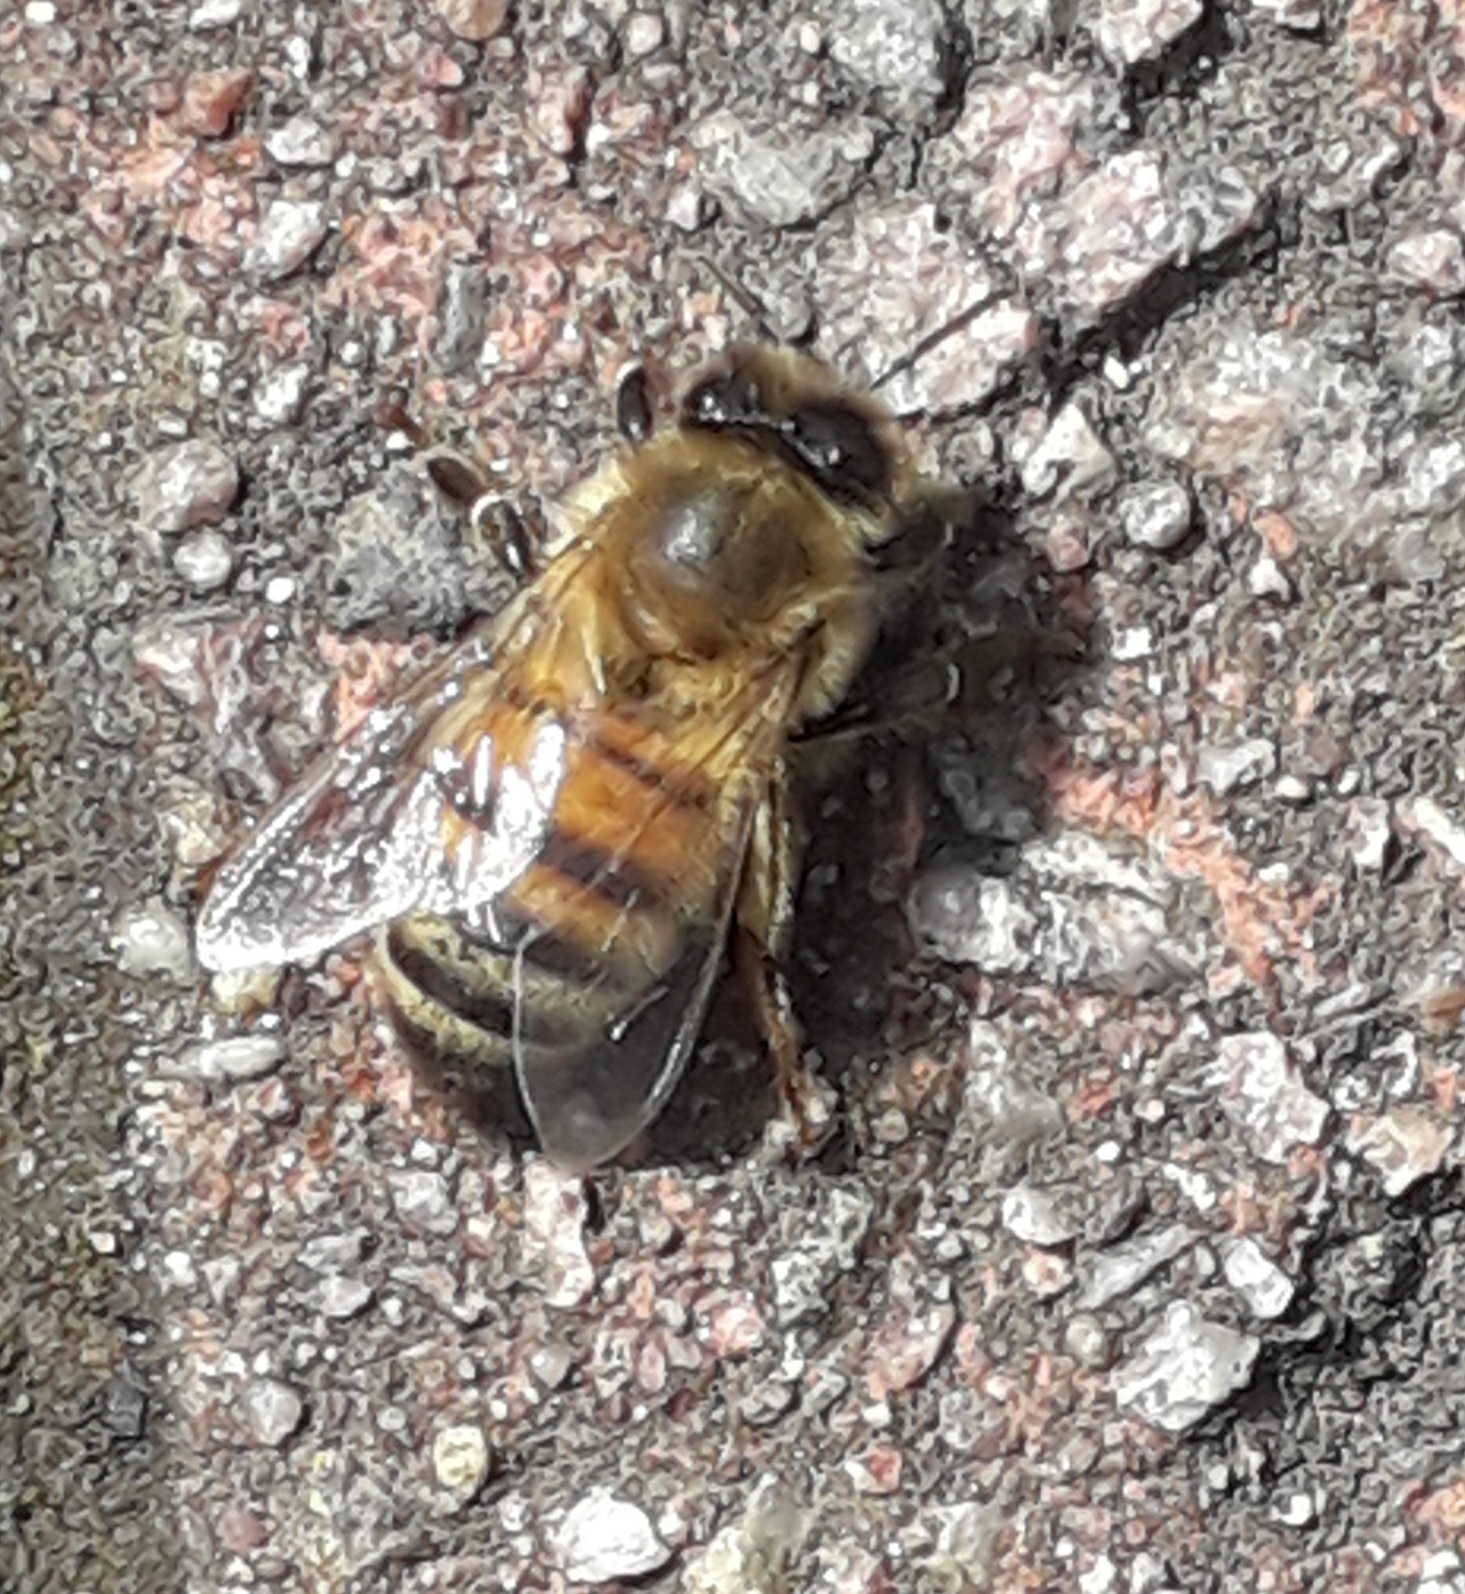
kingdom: Animalia
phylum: Arthropoda
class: Insecta
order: Hymenoptera
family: Apidae
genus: Apis
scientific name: Apis mellifera
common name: Honey bee
